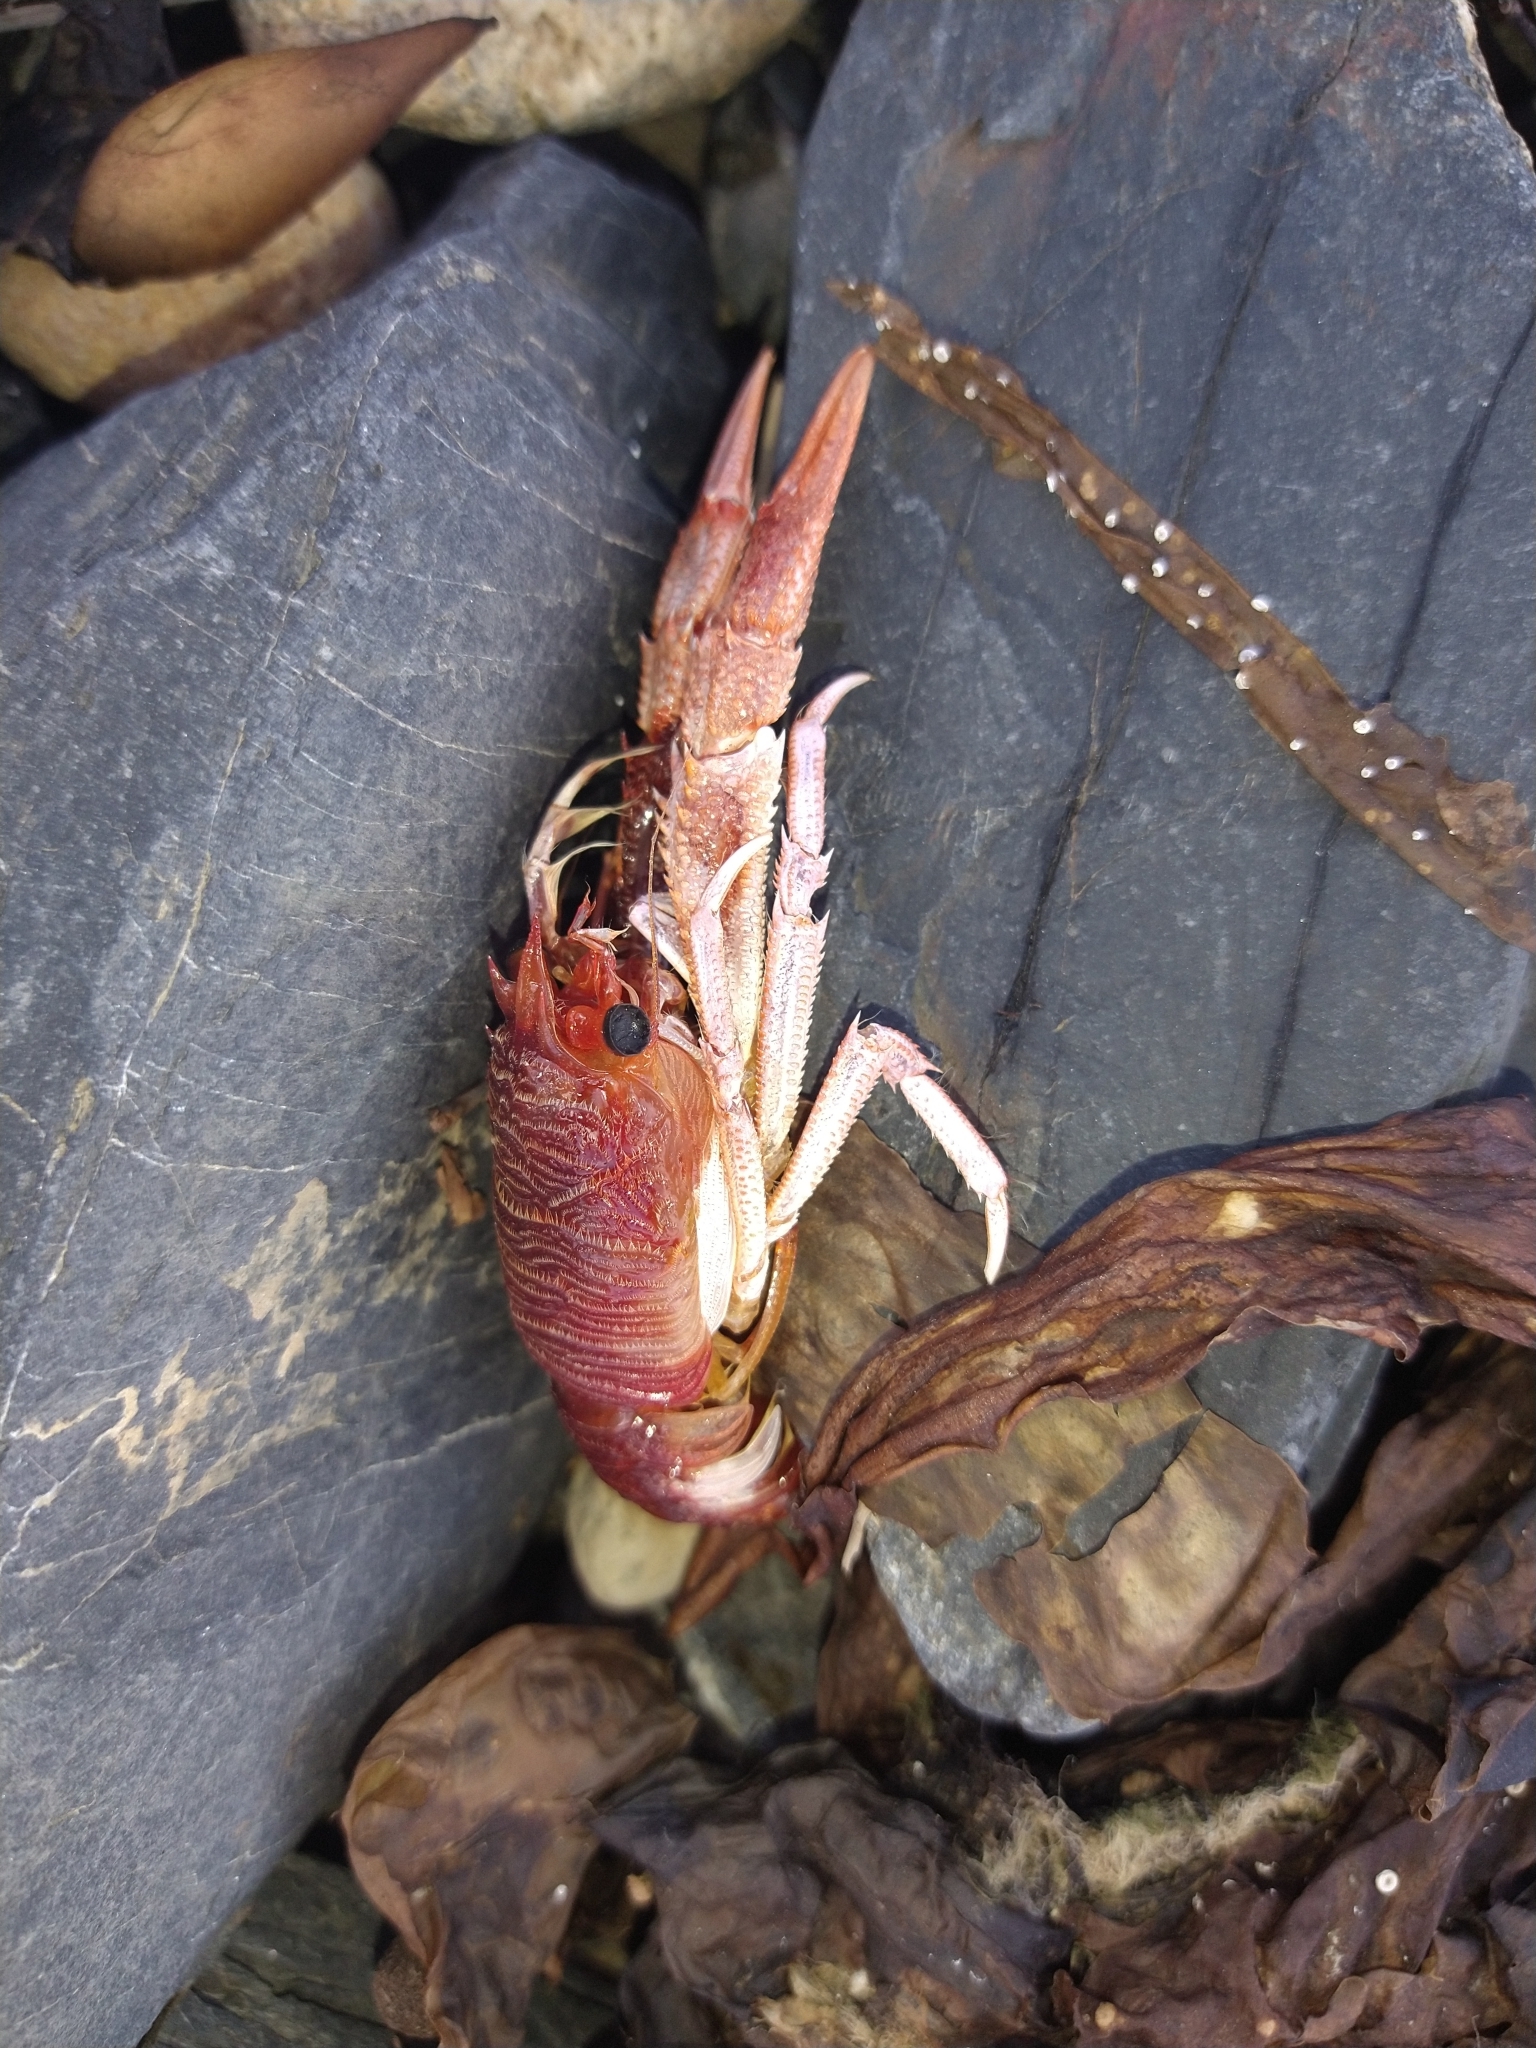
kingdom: Animalia
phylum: Arthropoda
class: Malacostraca
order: Decapoda
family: Munididae
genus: Grimothea
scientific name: Grimothea gregaria
